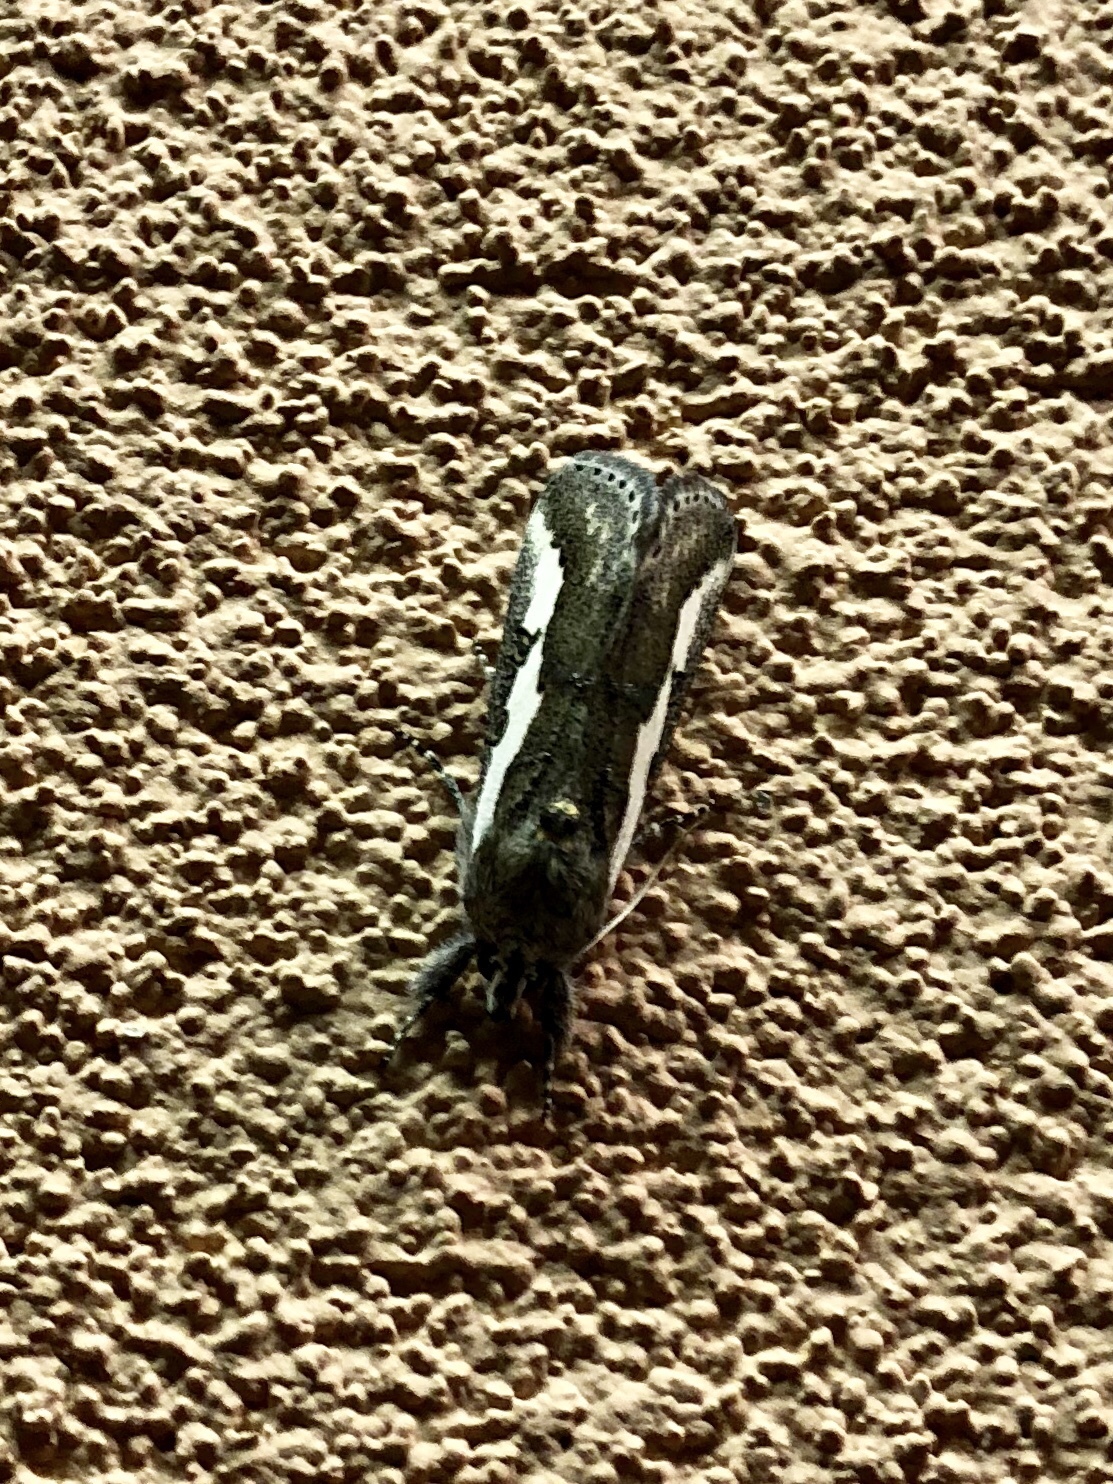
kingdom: Animalia
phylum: Arthropoda
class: Insecta
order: Lepidoptera
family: Noctuidae
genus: Euscirrhopterus
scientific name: Euscirrhopterus gloveri
